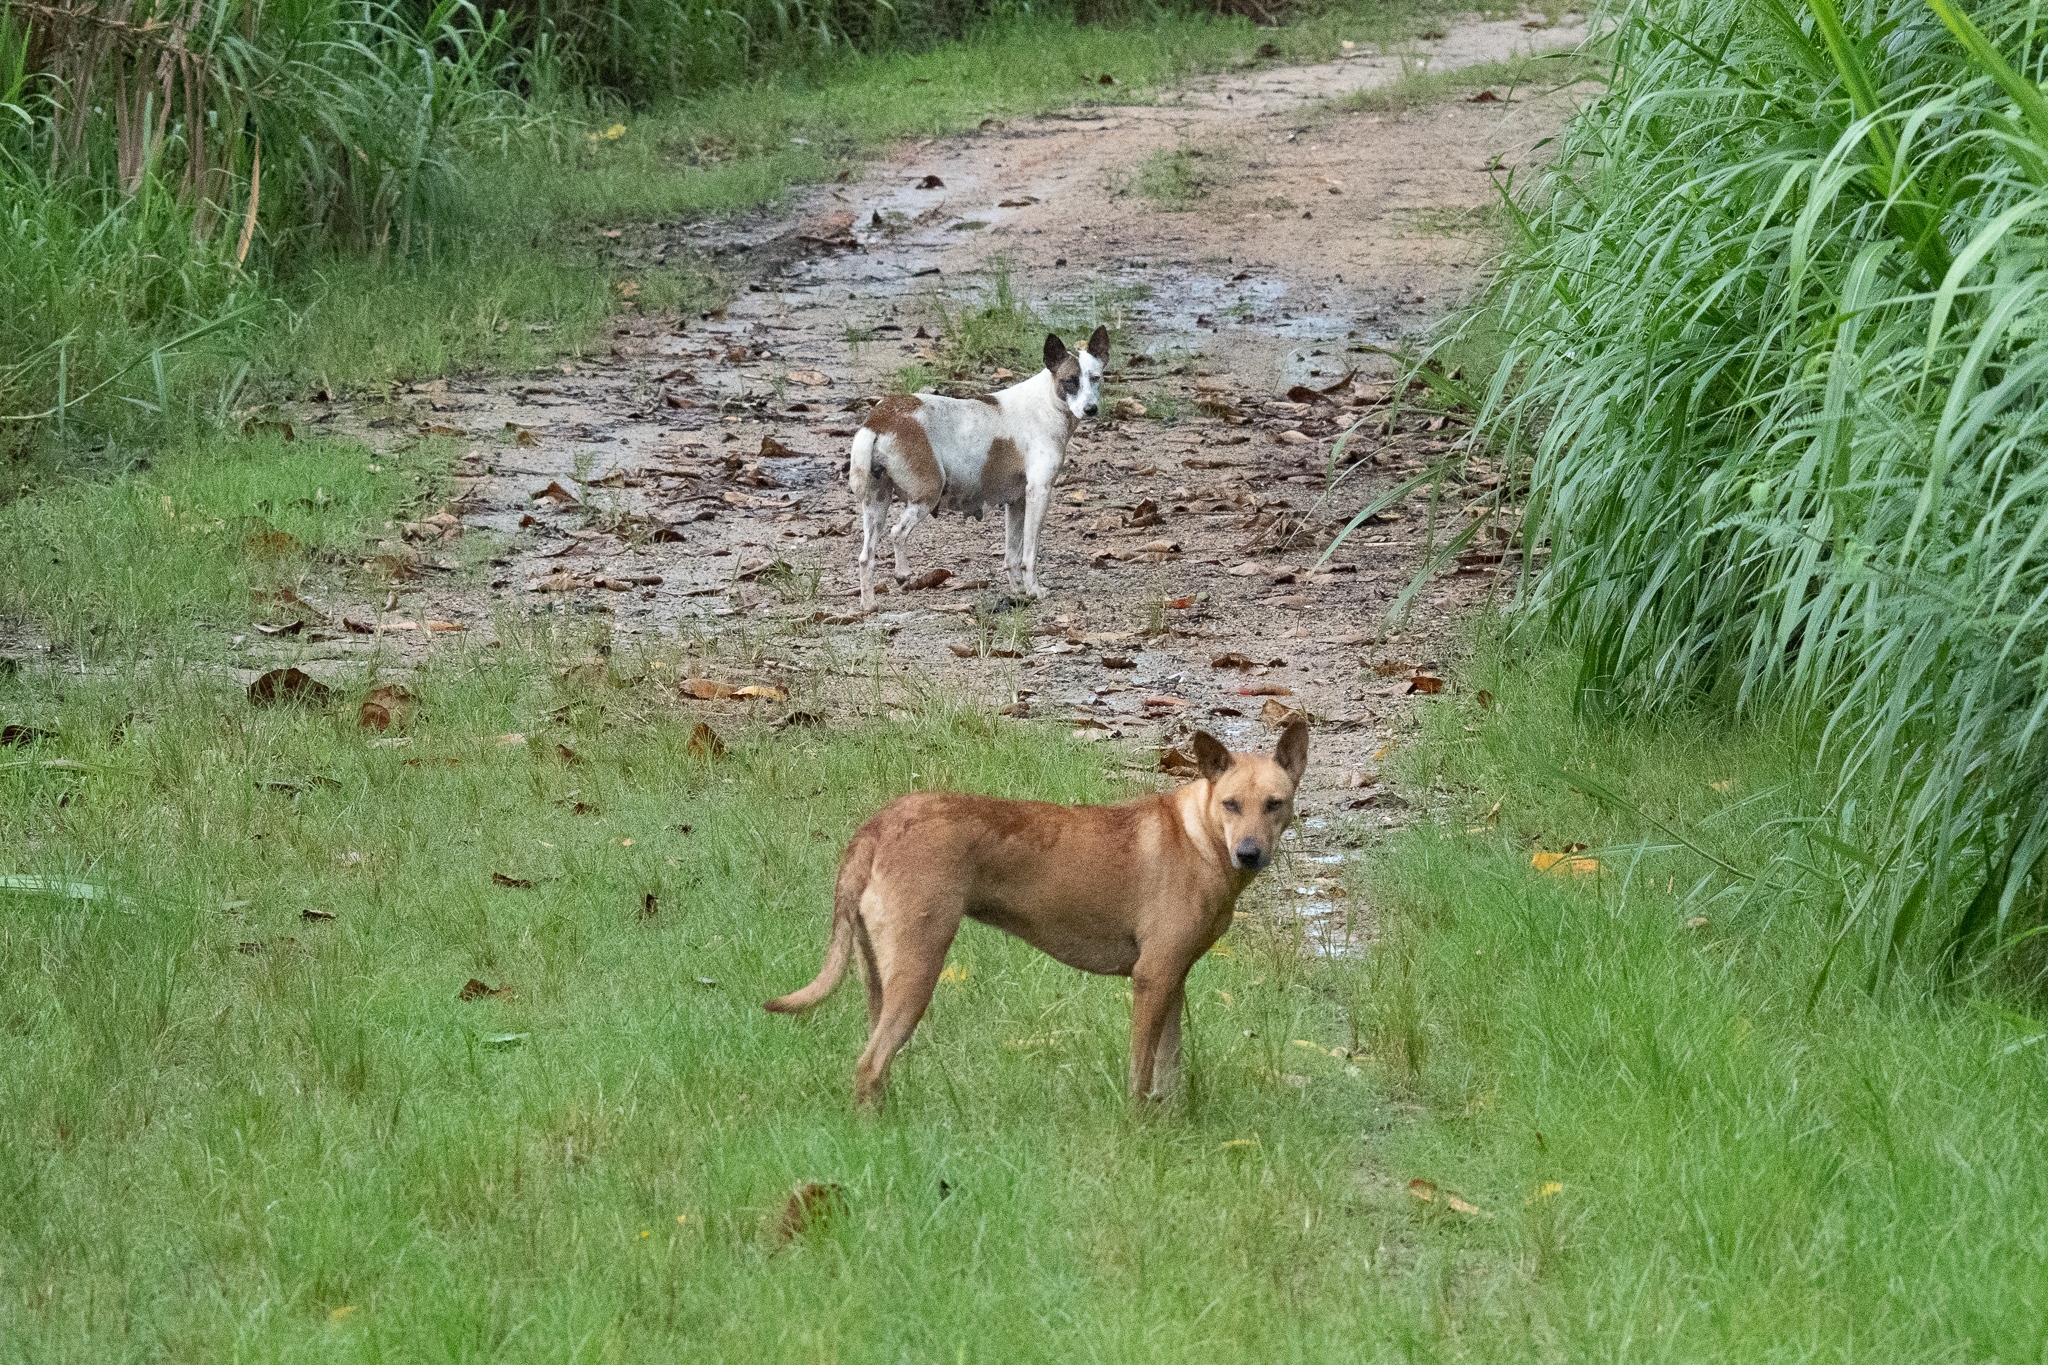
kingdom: Animalia
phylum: Chordata
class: Mammalia
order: Carnivora
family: Canidae
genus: Canis
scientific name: Canis lupus
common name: Gray wolf
